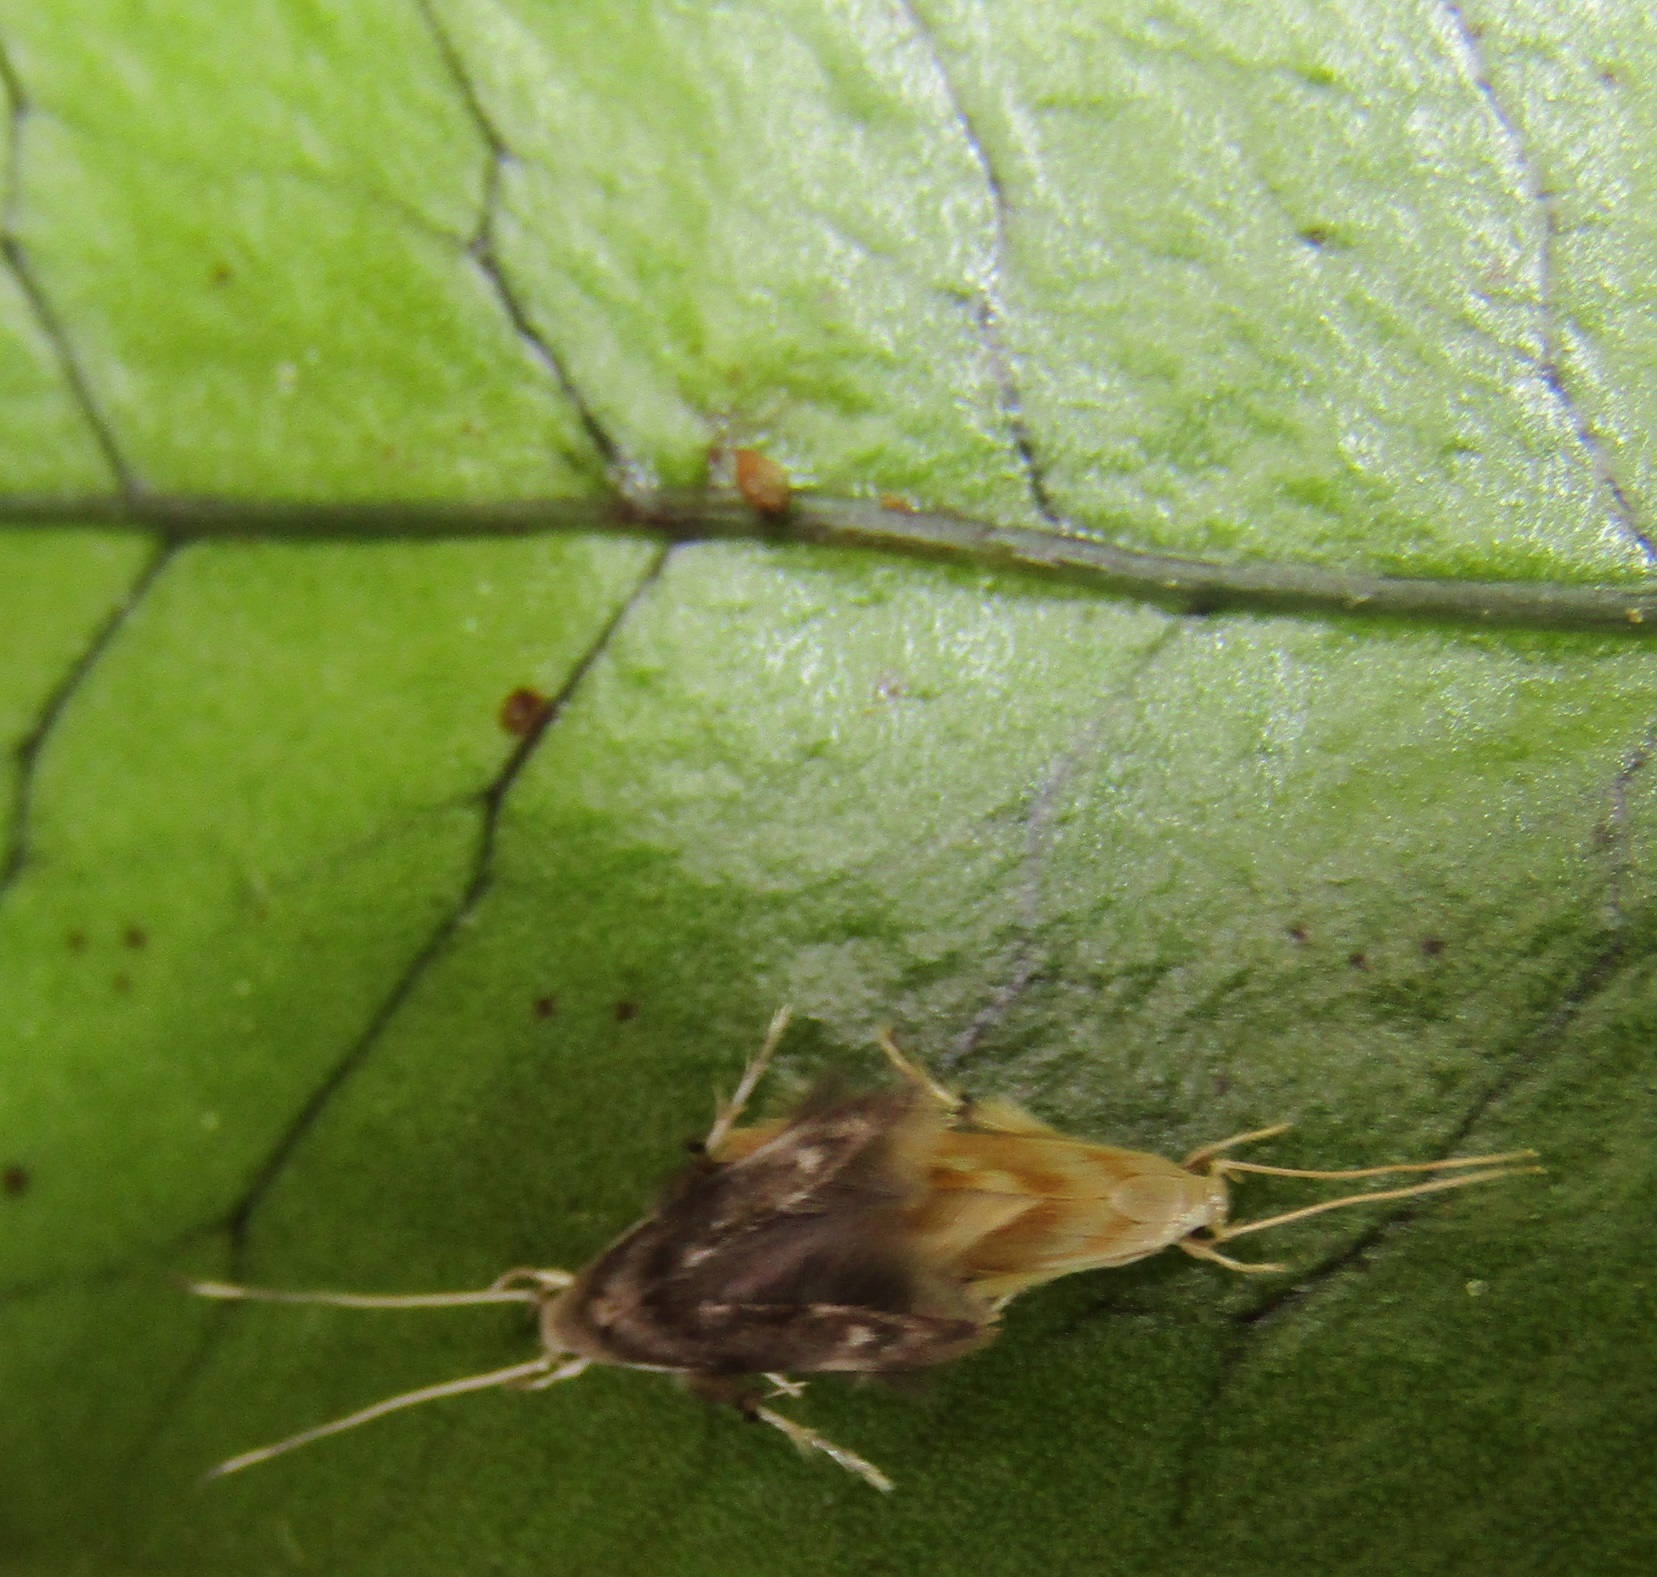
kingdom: Animalia
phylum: Arthropoda
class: Insecta
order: Lepidoptera
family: Stathmopodidae
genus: Thylacosceles
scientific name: Thylacosceles radians
